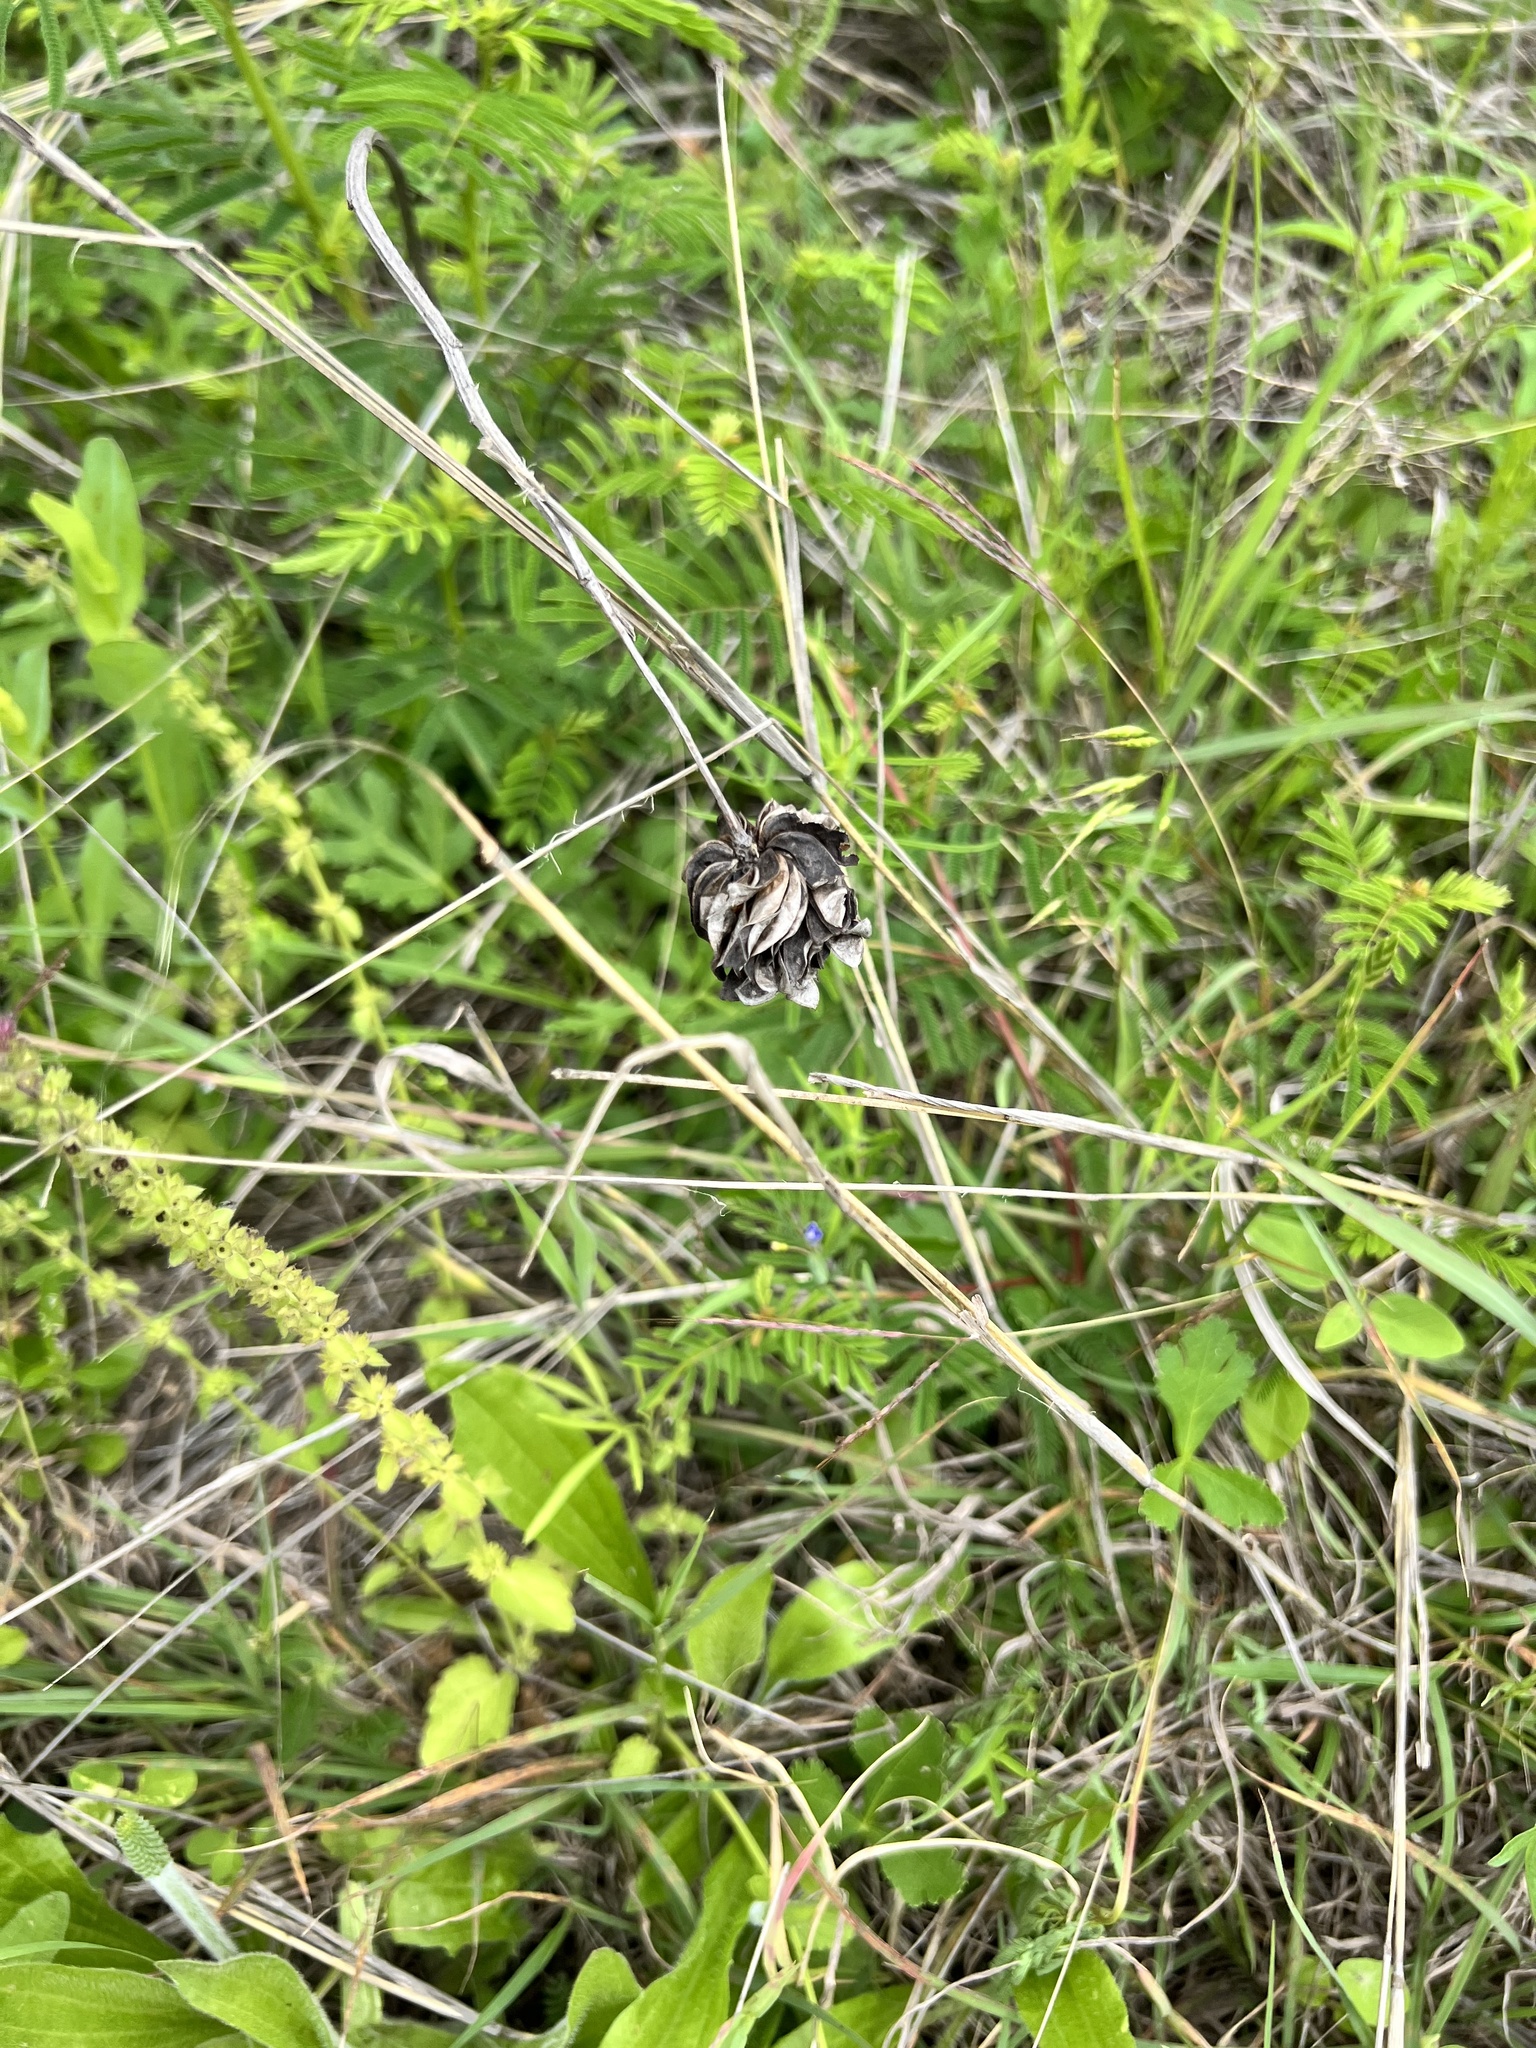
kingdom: Plantae
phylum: Tracheophyta
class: Magnoliopsida
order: Fabales
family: Fabaceae
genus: Desmanthus
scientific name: Desmanthus illinoensis
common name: Illinois bundle-flower
